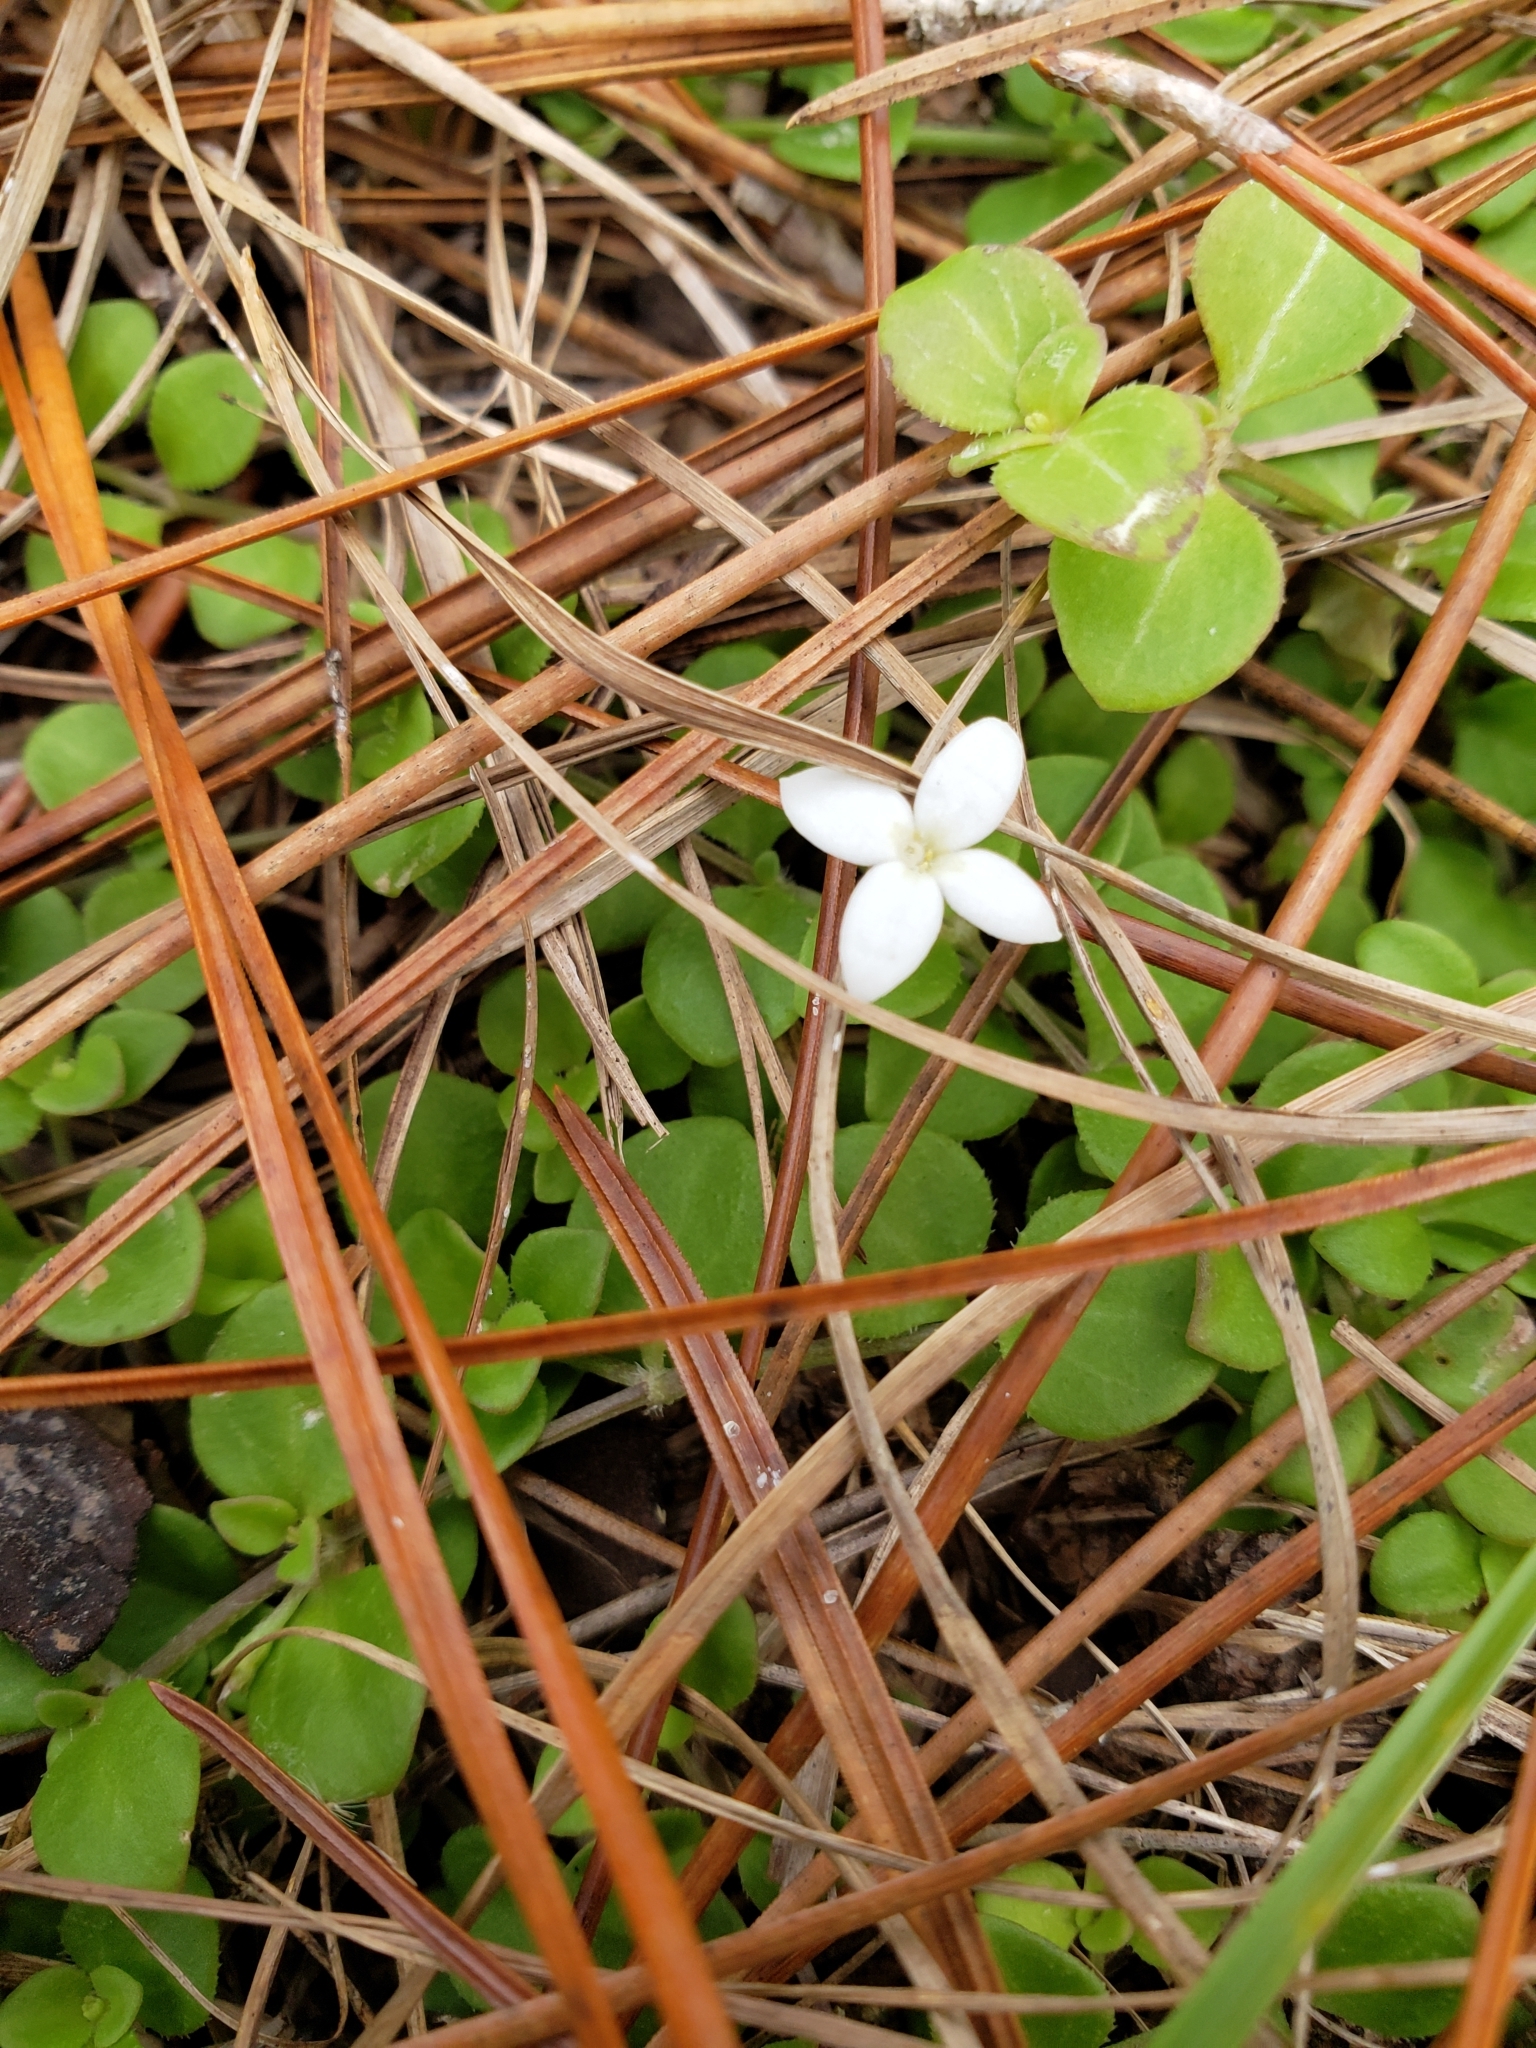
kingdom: Plantae
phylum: Tracheophyta
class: Magnoliopsida
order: Gentianales
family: Rubiaceae
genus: Houstonia
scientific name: Houstonia procumbens
